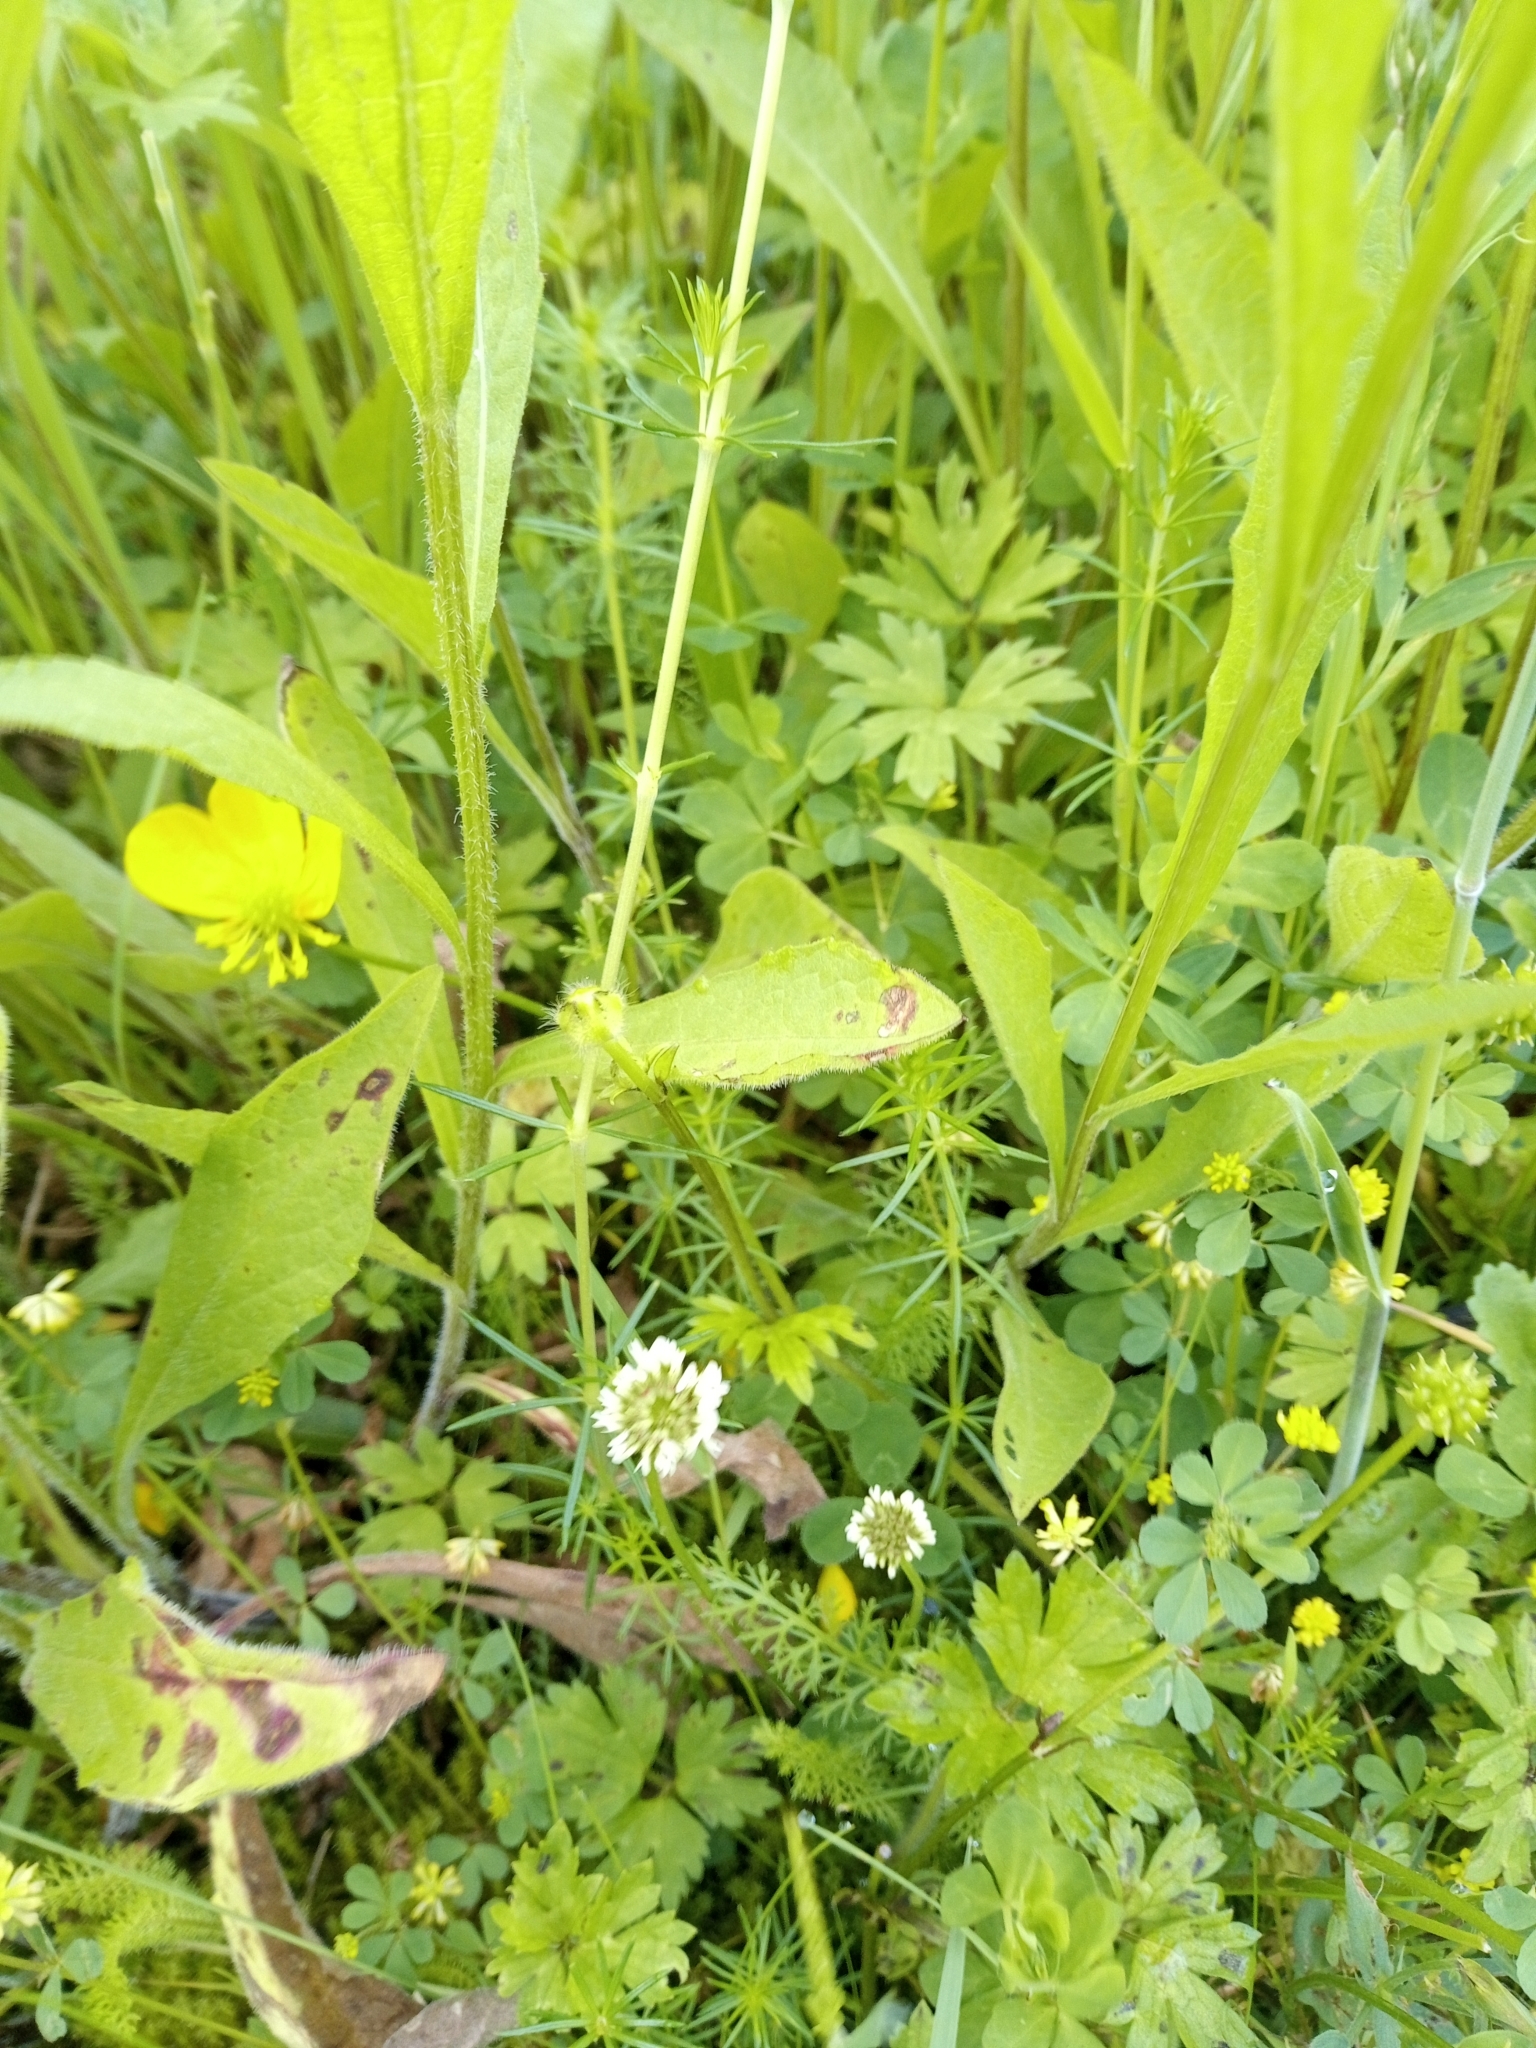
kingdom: Plantae
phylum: Tracheophyta
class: Magnoliopsida
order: Gentianales
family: Rubiaceae
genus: Galium
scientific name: Galium verum
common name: Lady's bedstraw
